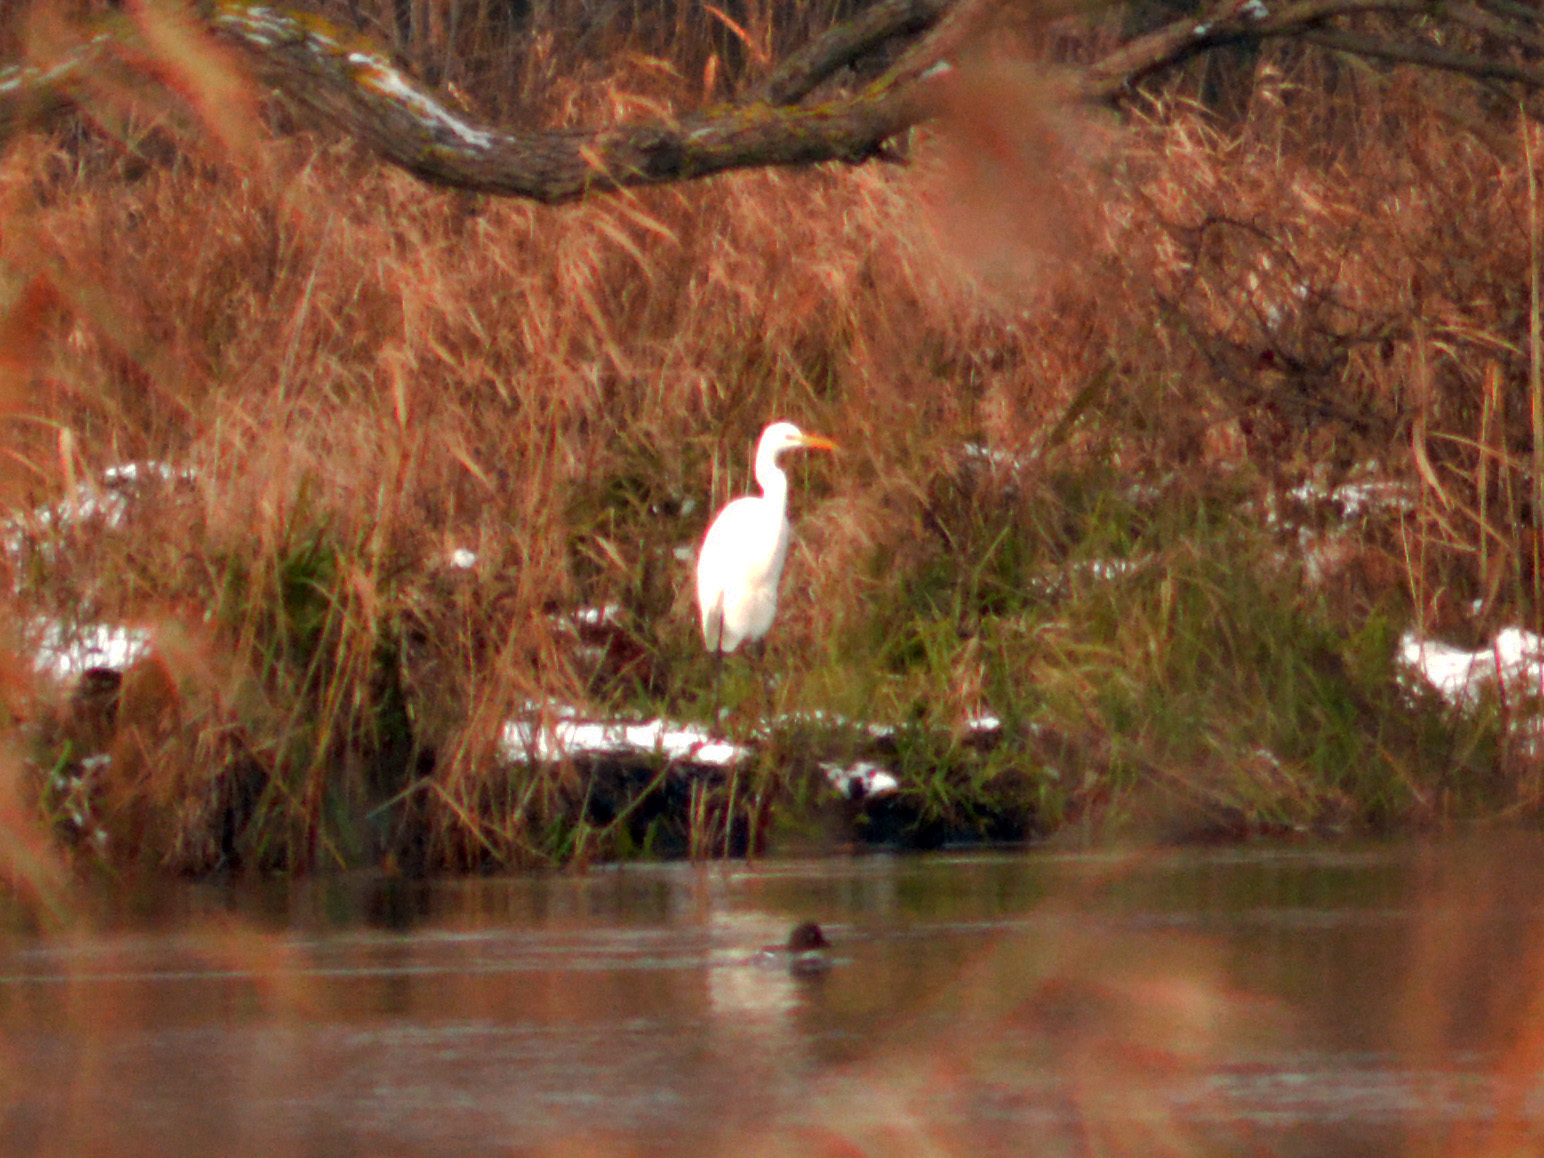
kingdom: Animalia
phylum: Chordata
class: Aves
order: Pelecaniformes
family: Ardeidae
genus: Ardea
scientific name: Ardea alba
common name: Great egret
